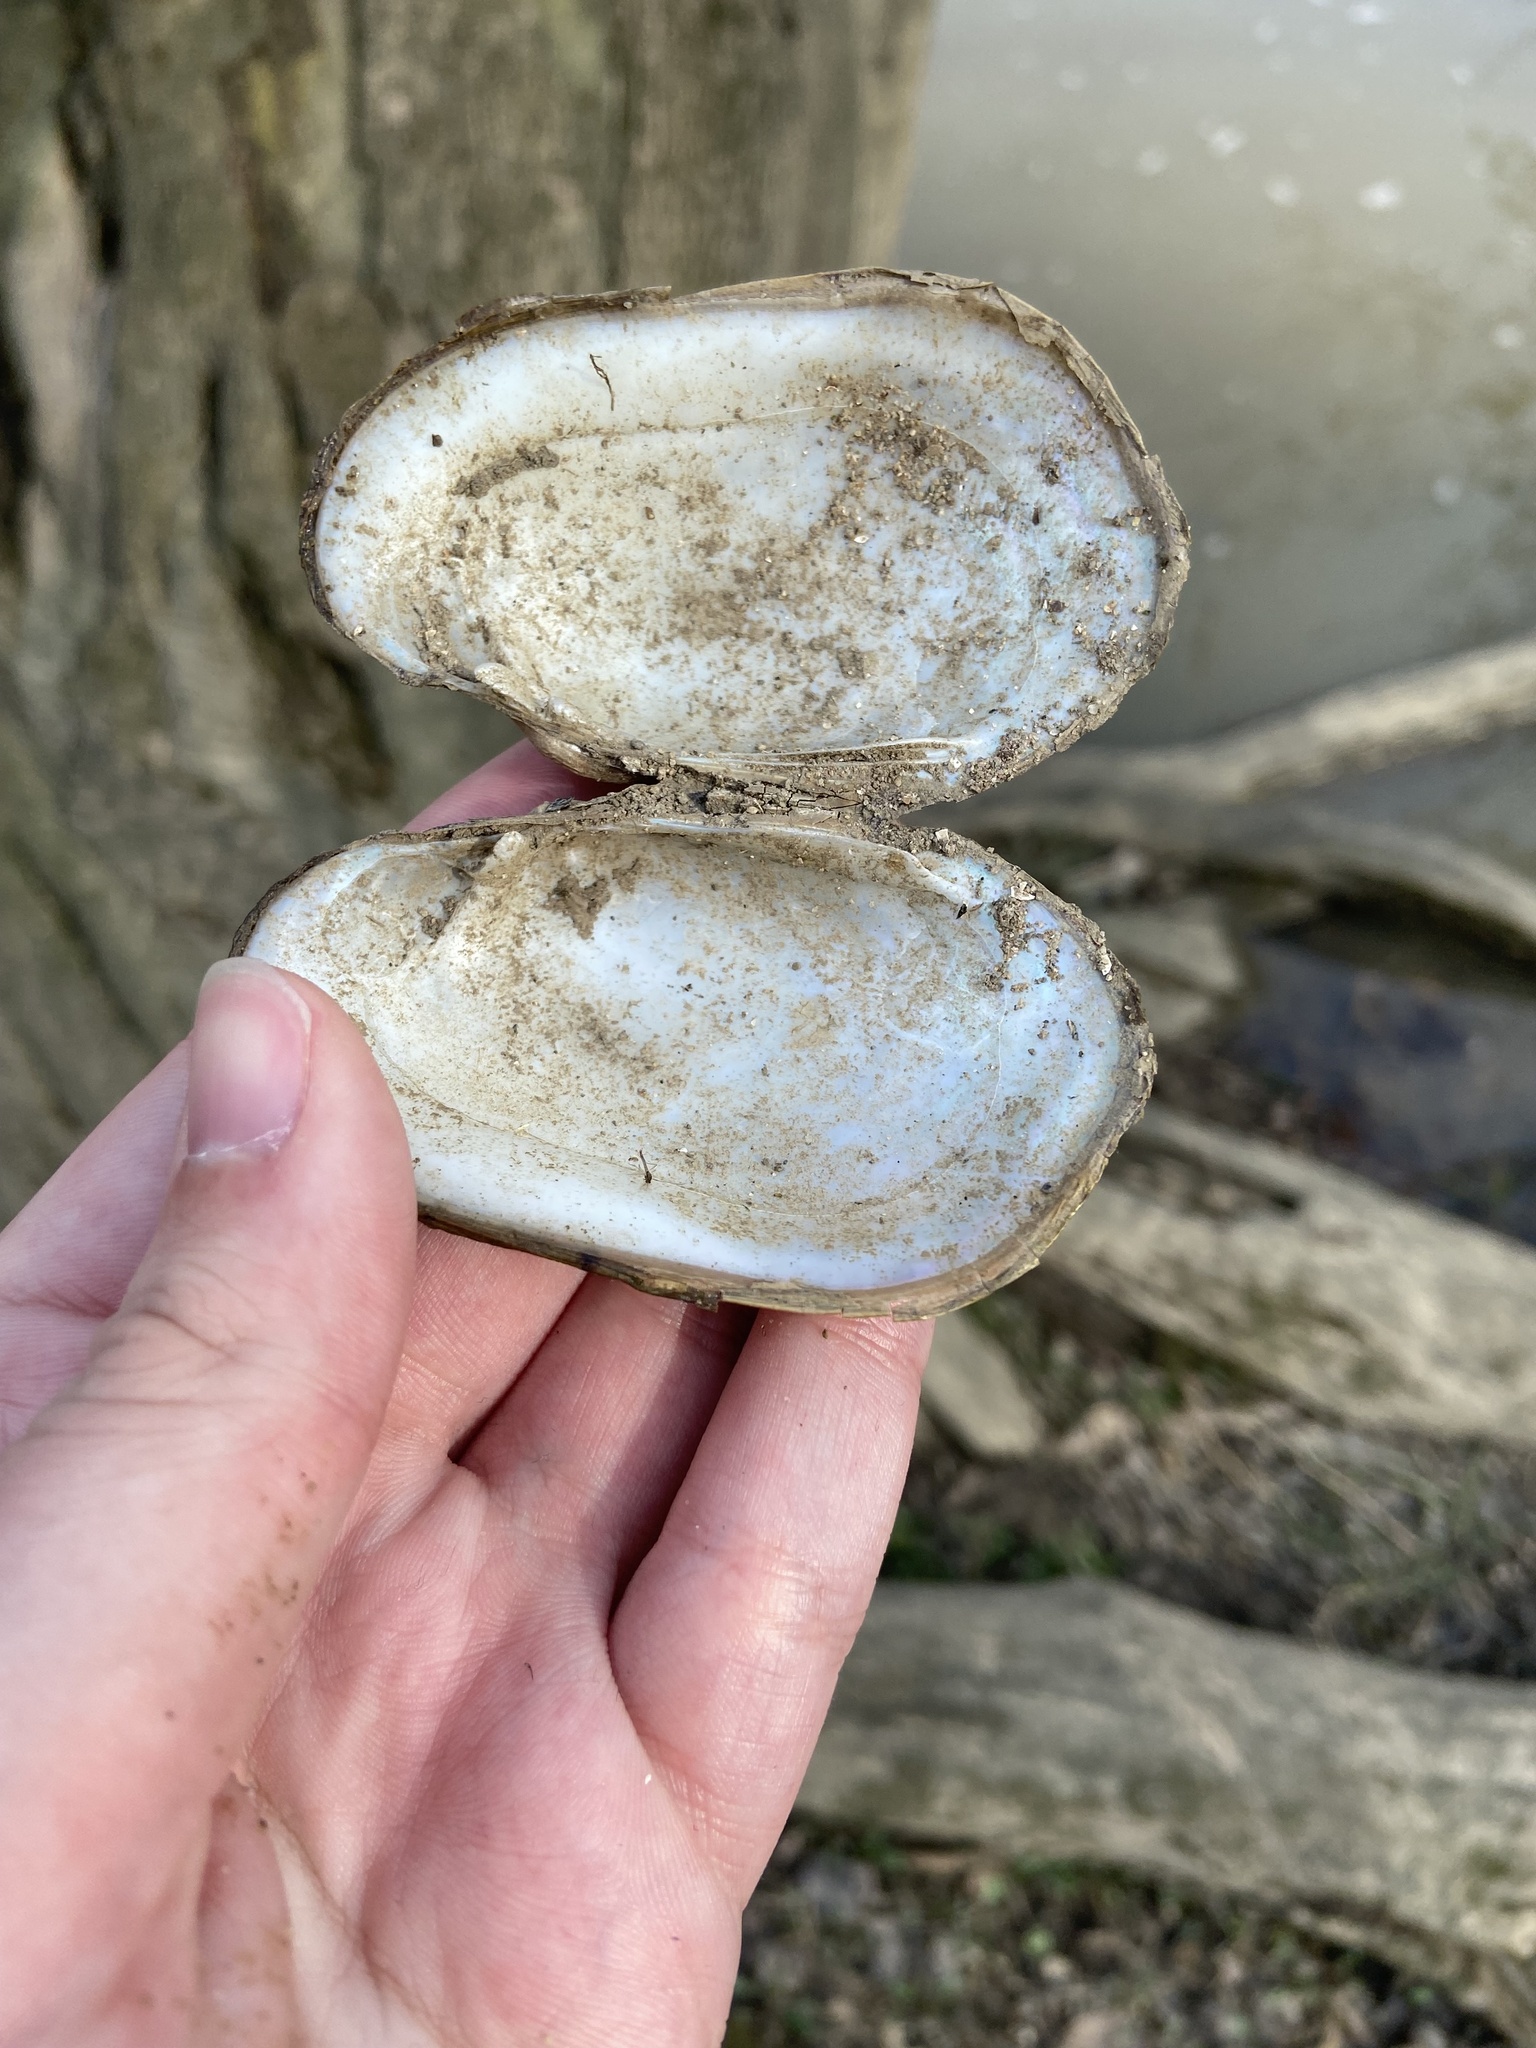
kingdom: Animalia
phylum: Mollusca
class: Bivalvia
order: Unionida
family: Unionidae
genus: Lampsilis
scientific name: Lampsilis siliquoidea
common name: Fatmucket
